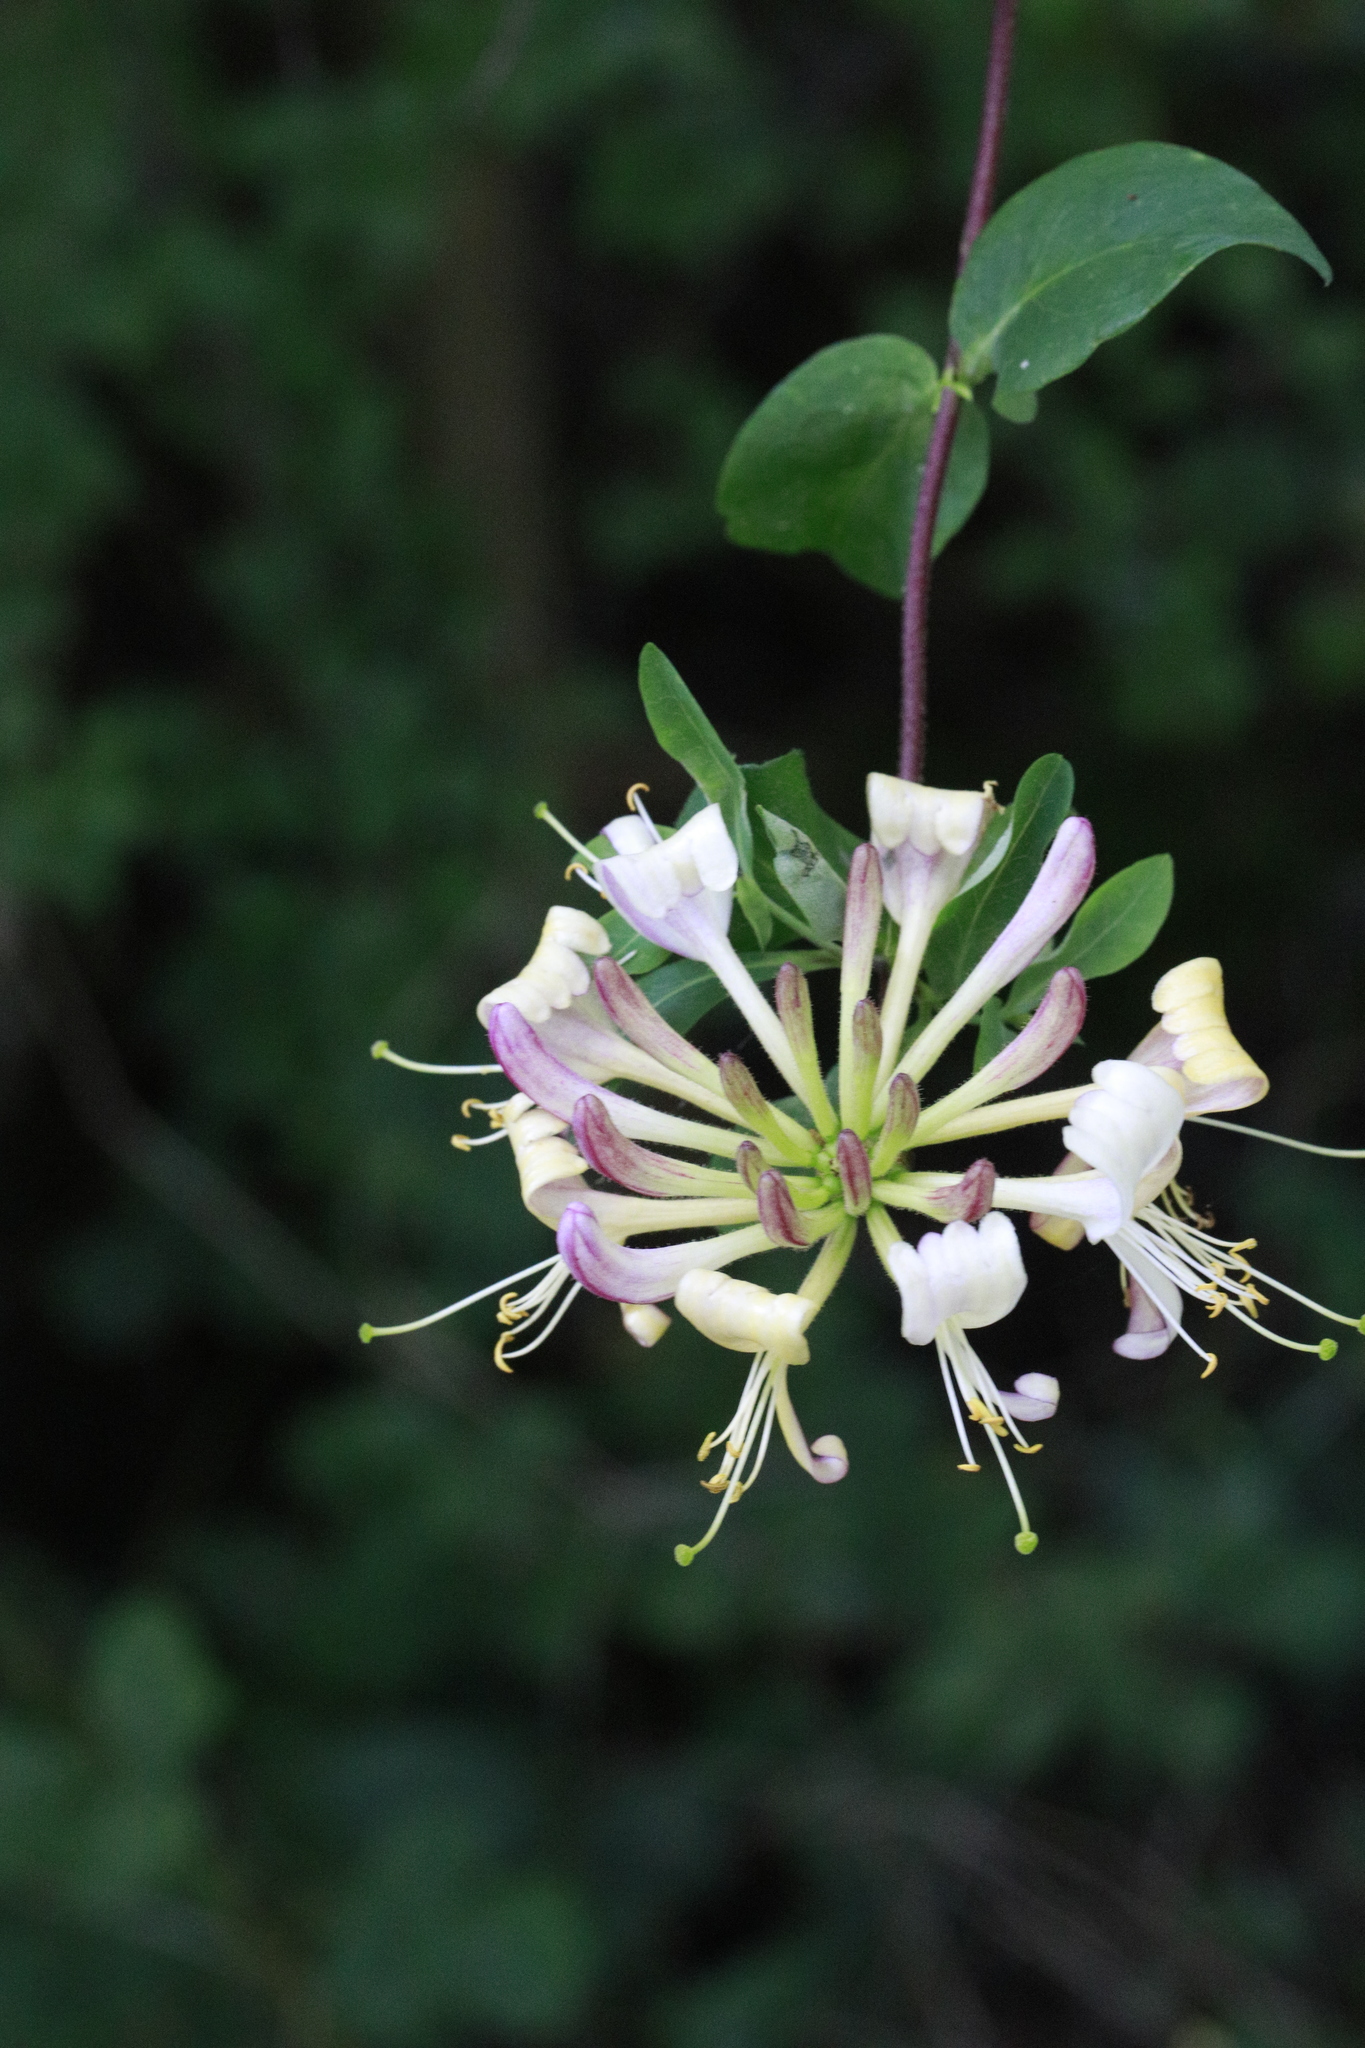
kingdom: Plantae
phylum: Tracheophyta
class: Magnoliopsida
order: Dipsacales
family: Caprifoliaceae
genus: Lonicera
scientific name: Lonicera periclymenum
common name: European honeysuckle
